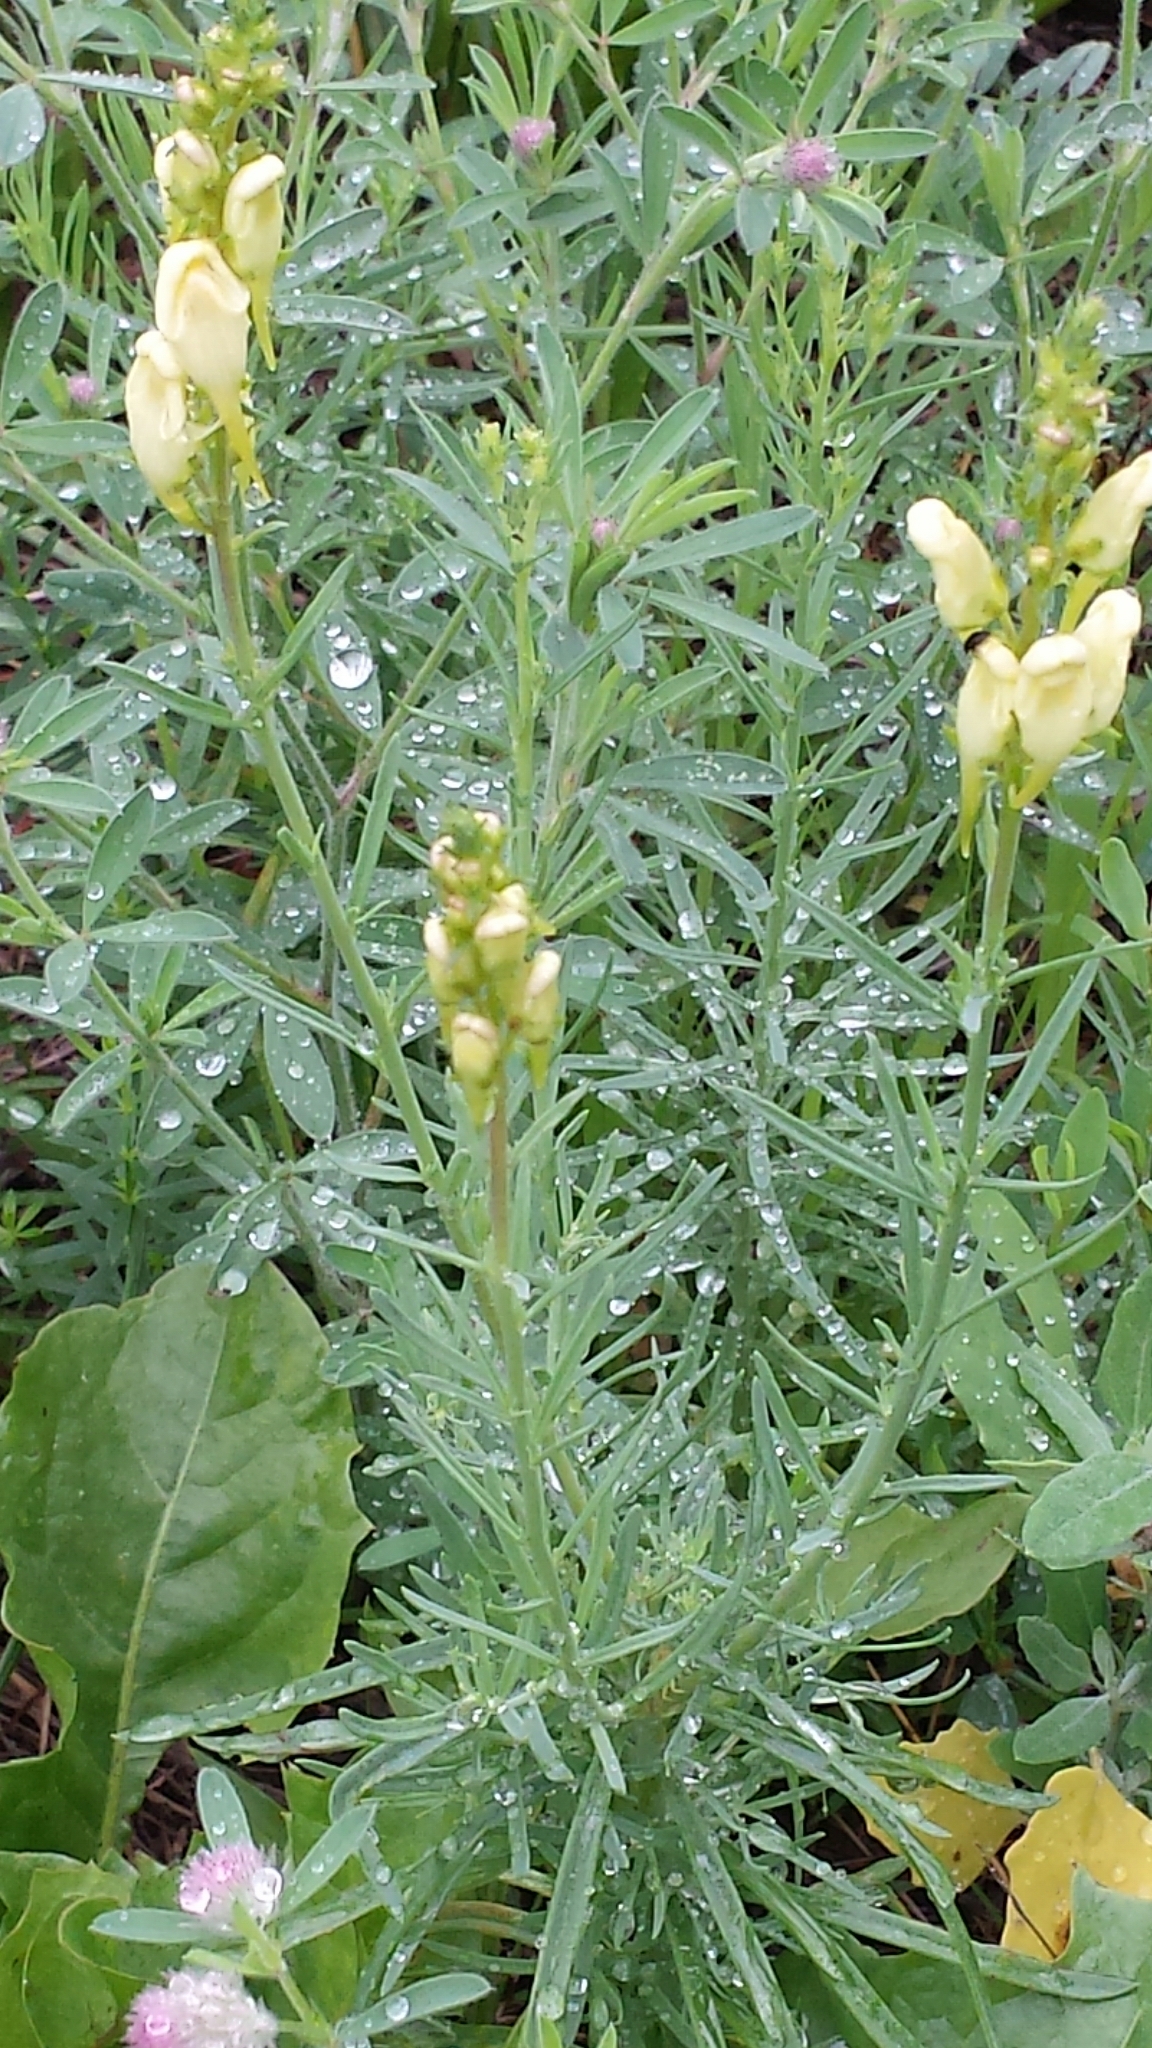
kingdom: Plantae
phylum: Tracheophyta
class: Magnoliopsida
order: Lamiales
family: Plantaginaceae
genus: Linaria
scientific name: Linaria vulgaris
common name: Butter and eggs
